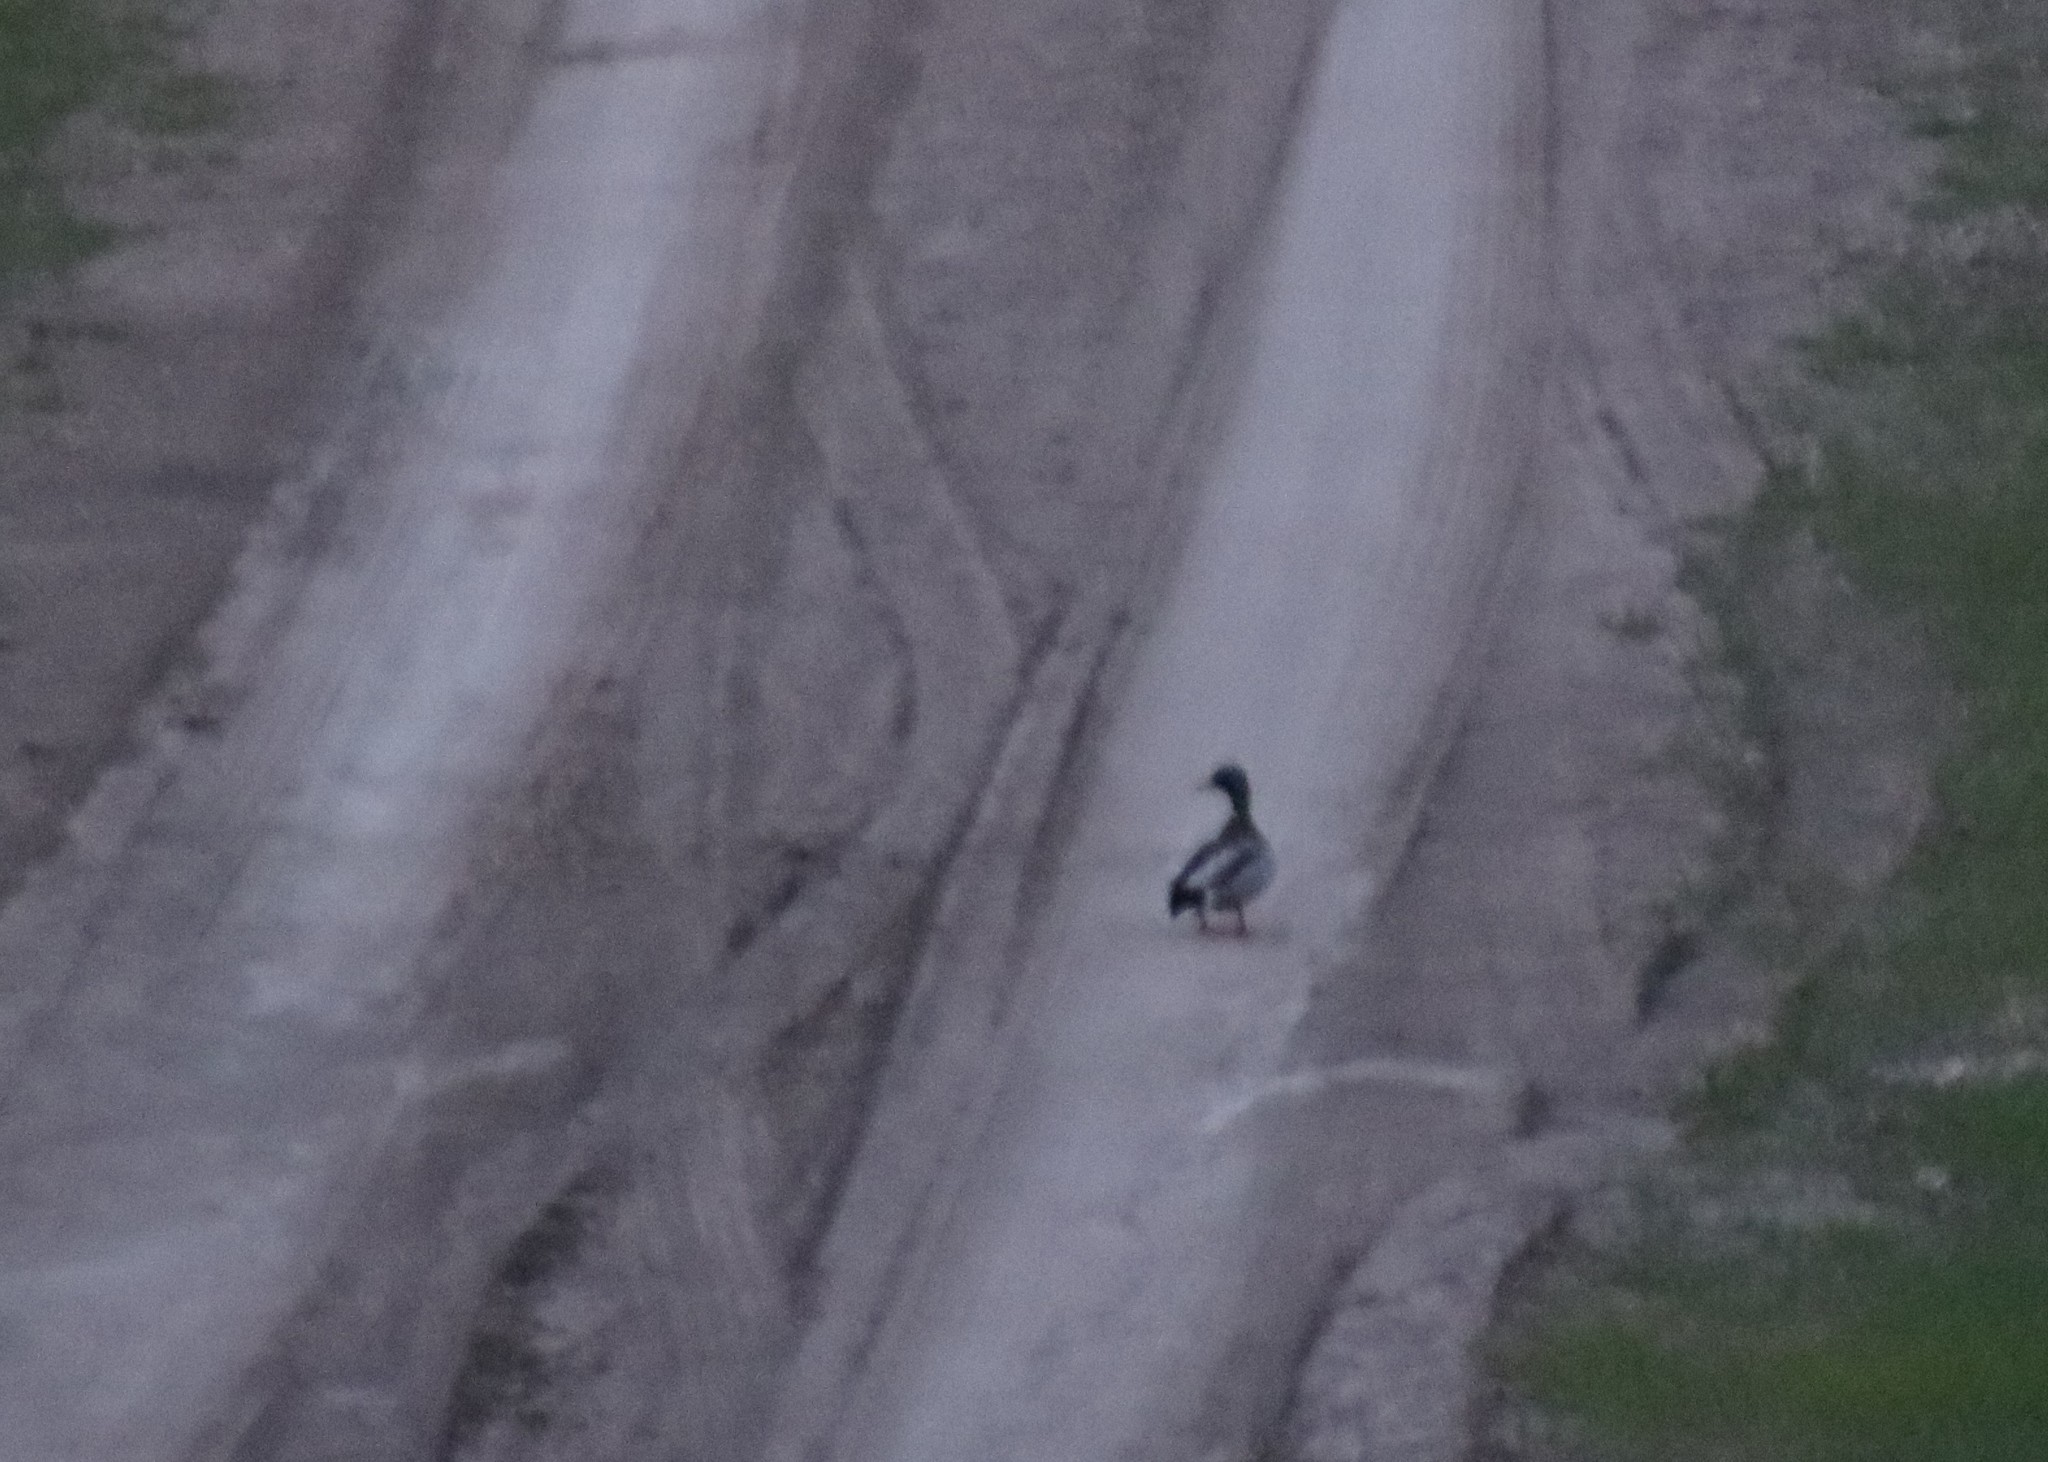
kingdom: Animalia
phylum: Chordata
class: Aves
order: Anseriformes
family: Anatidae
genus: Anas
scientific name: Anas platyrhynchos
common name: Mallard
